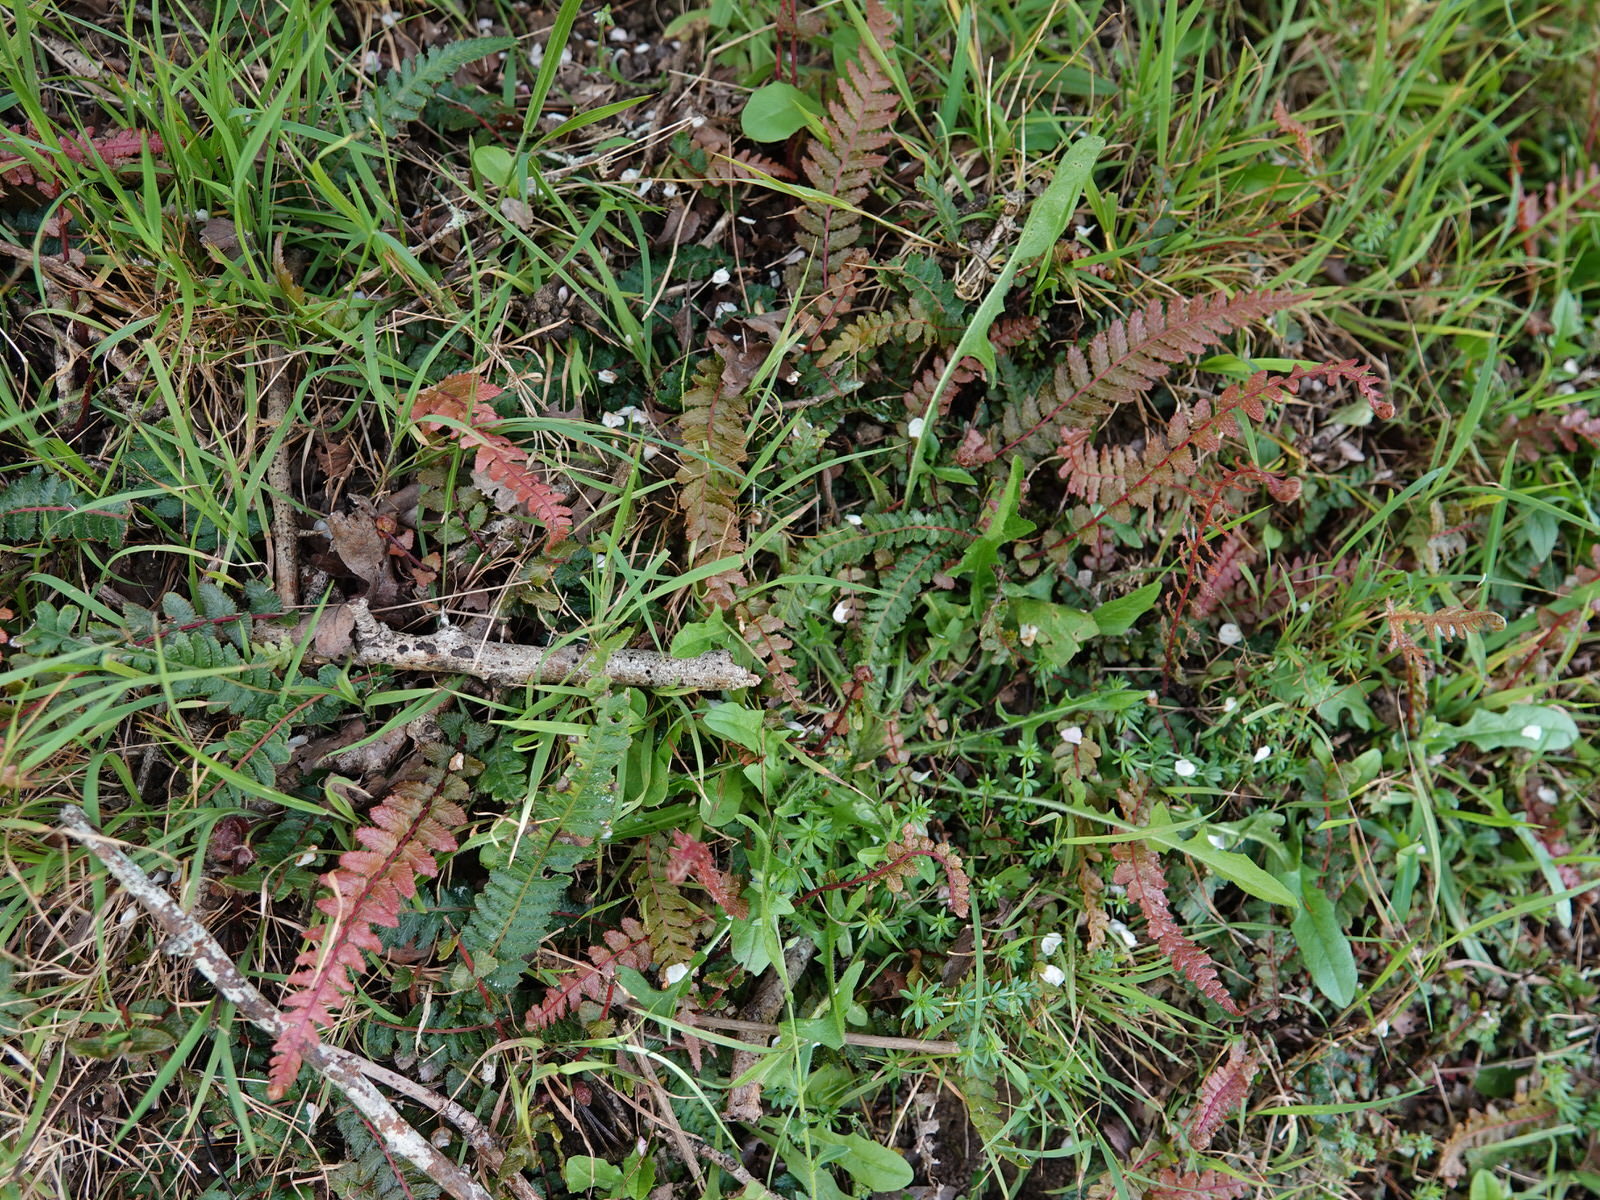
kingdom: Plantae
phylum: Tracheophyta
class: Polypodiopsida
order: Polypodiales
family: Blechnaceae
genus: Doodia
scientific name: Doodia australis
